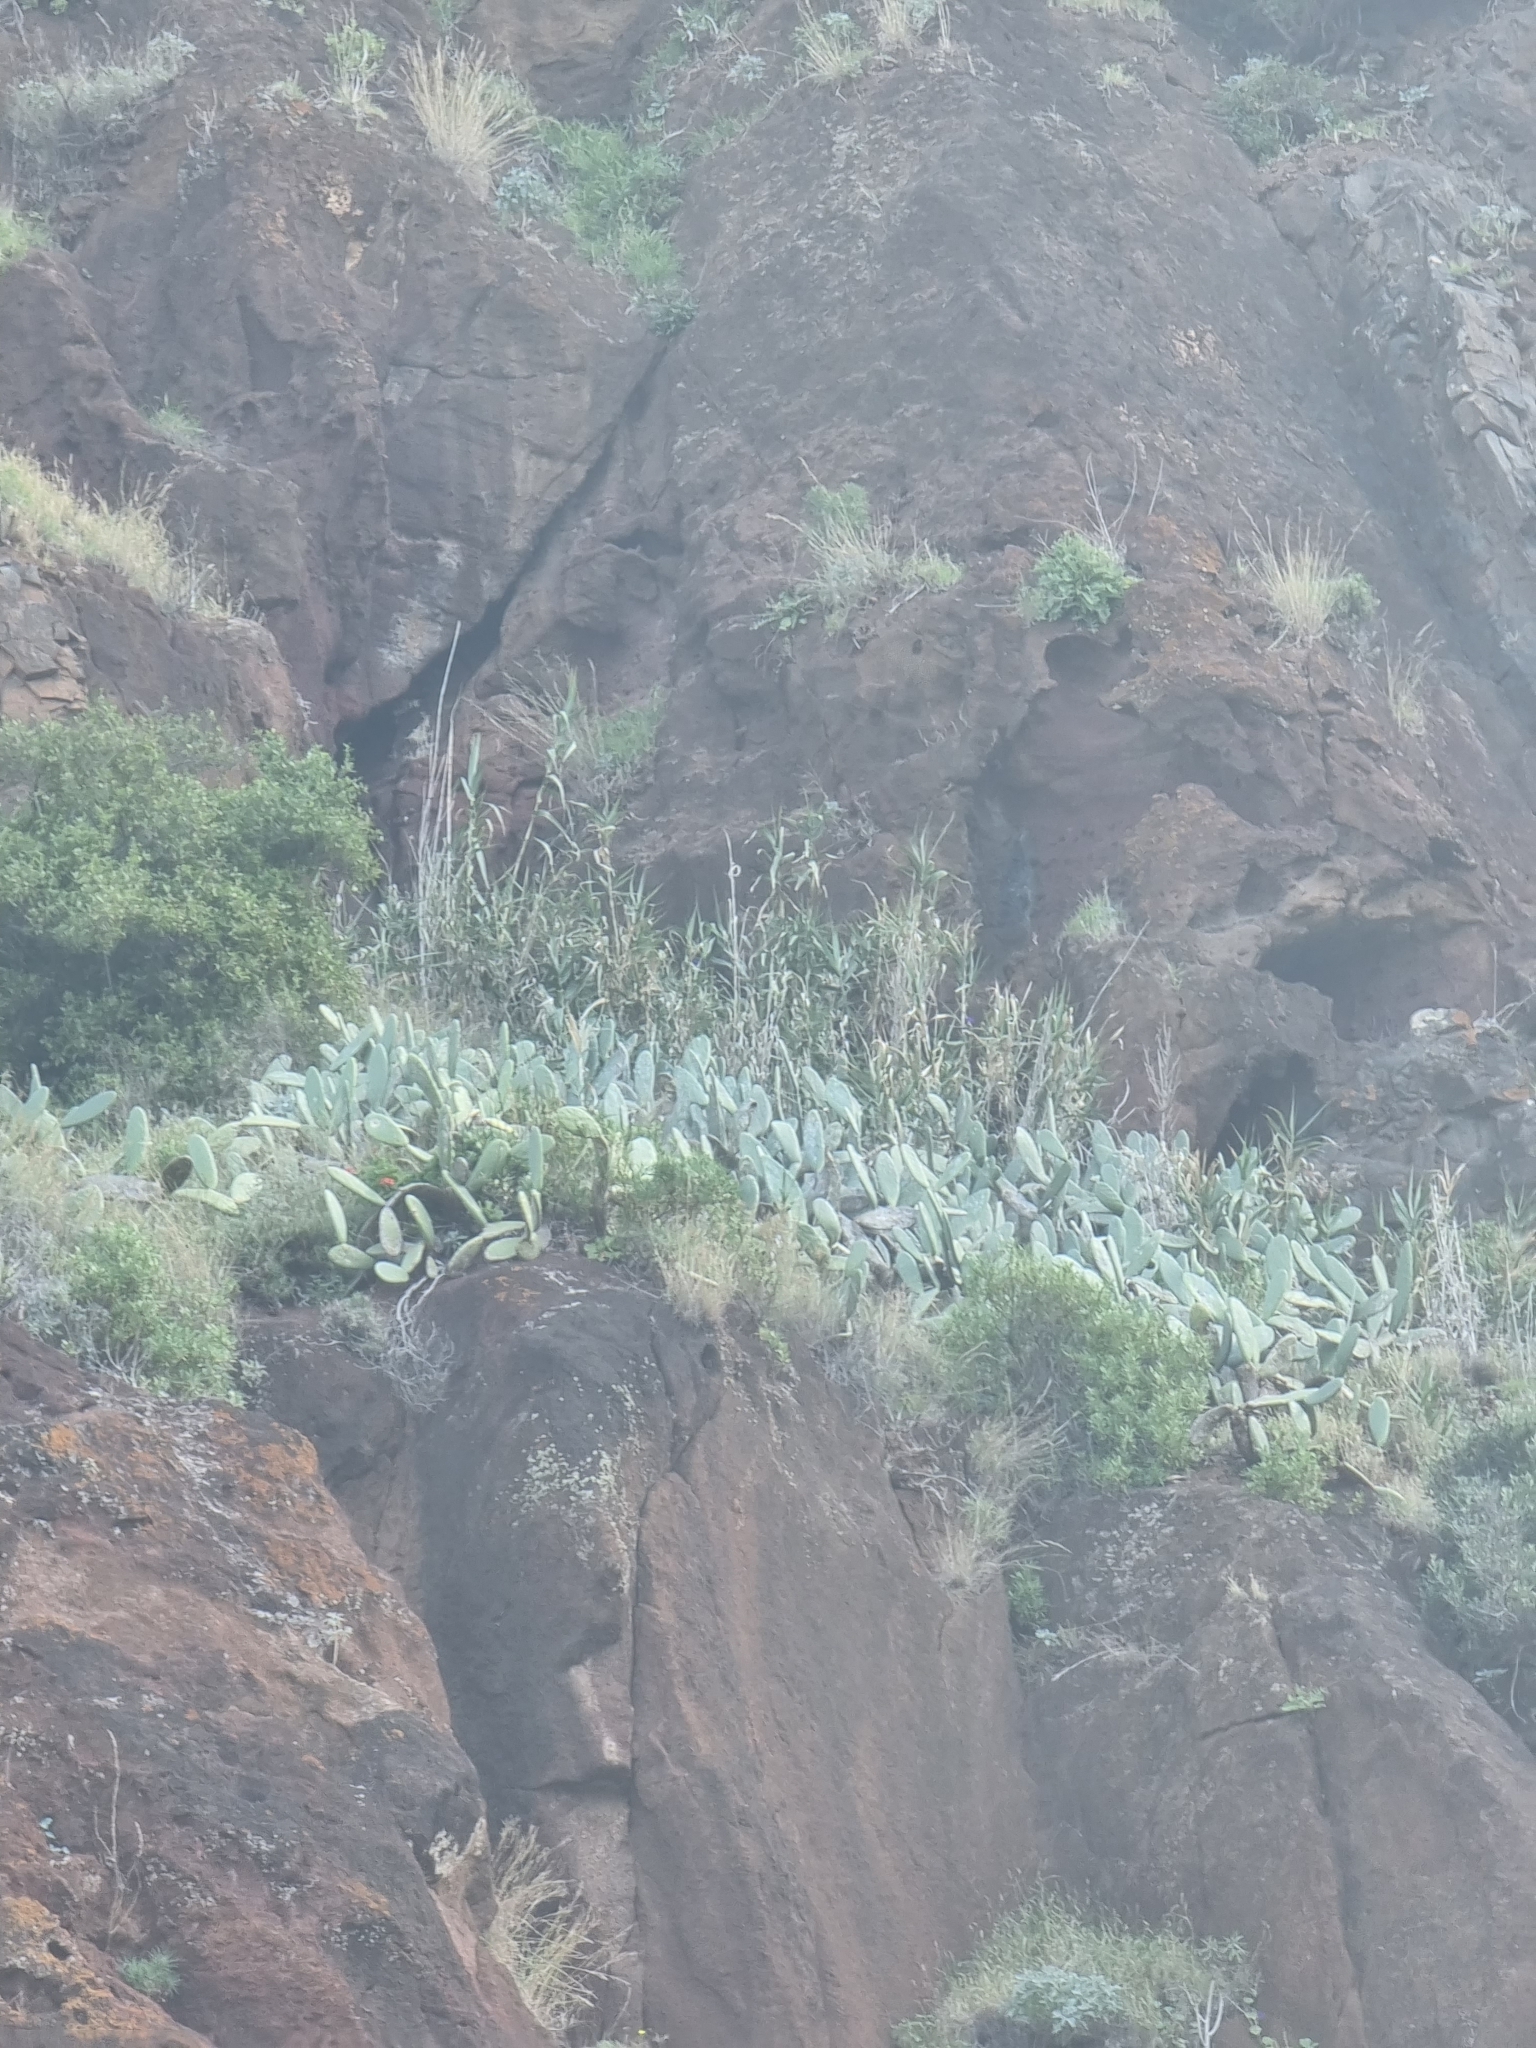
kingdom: Plantae
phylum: Tracheophyta
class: Magnoliopsida
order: Caryophyllales
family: Cactaceae
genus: Opuntia
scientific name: Opuntia ficus-indica
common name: Barbary fig
